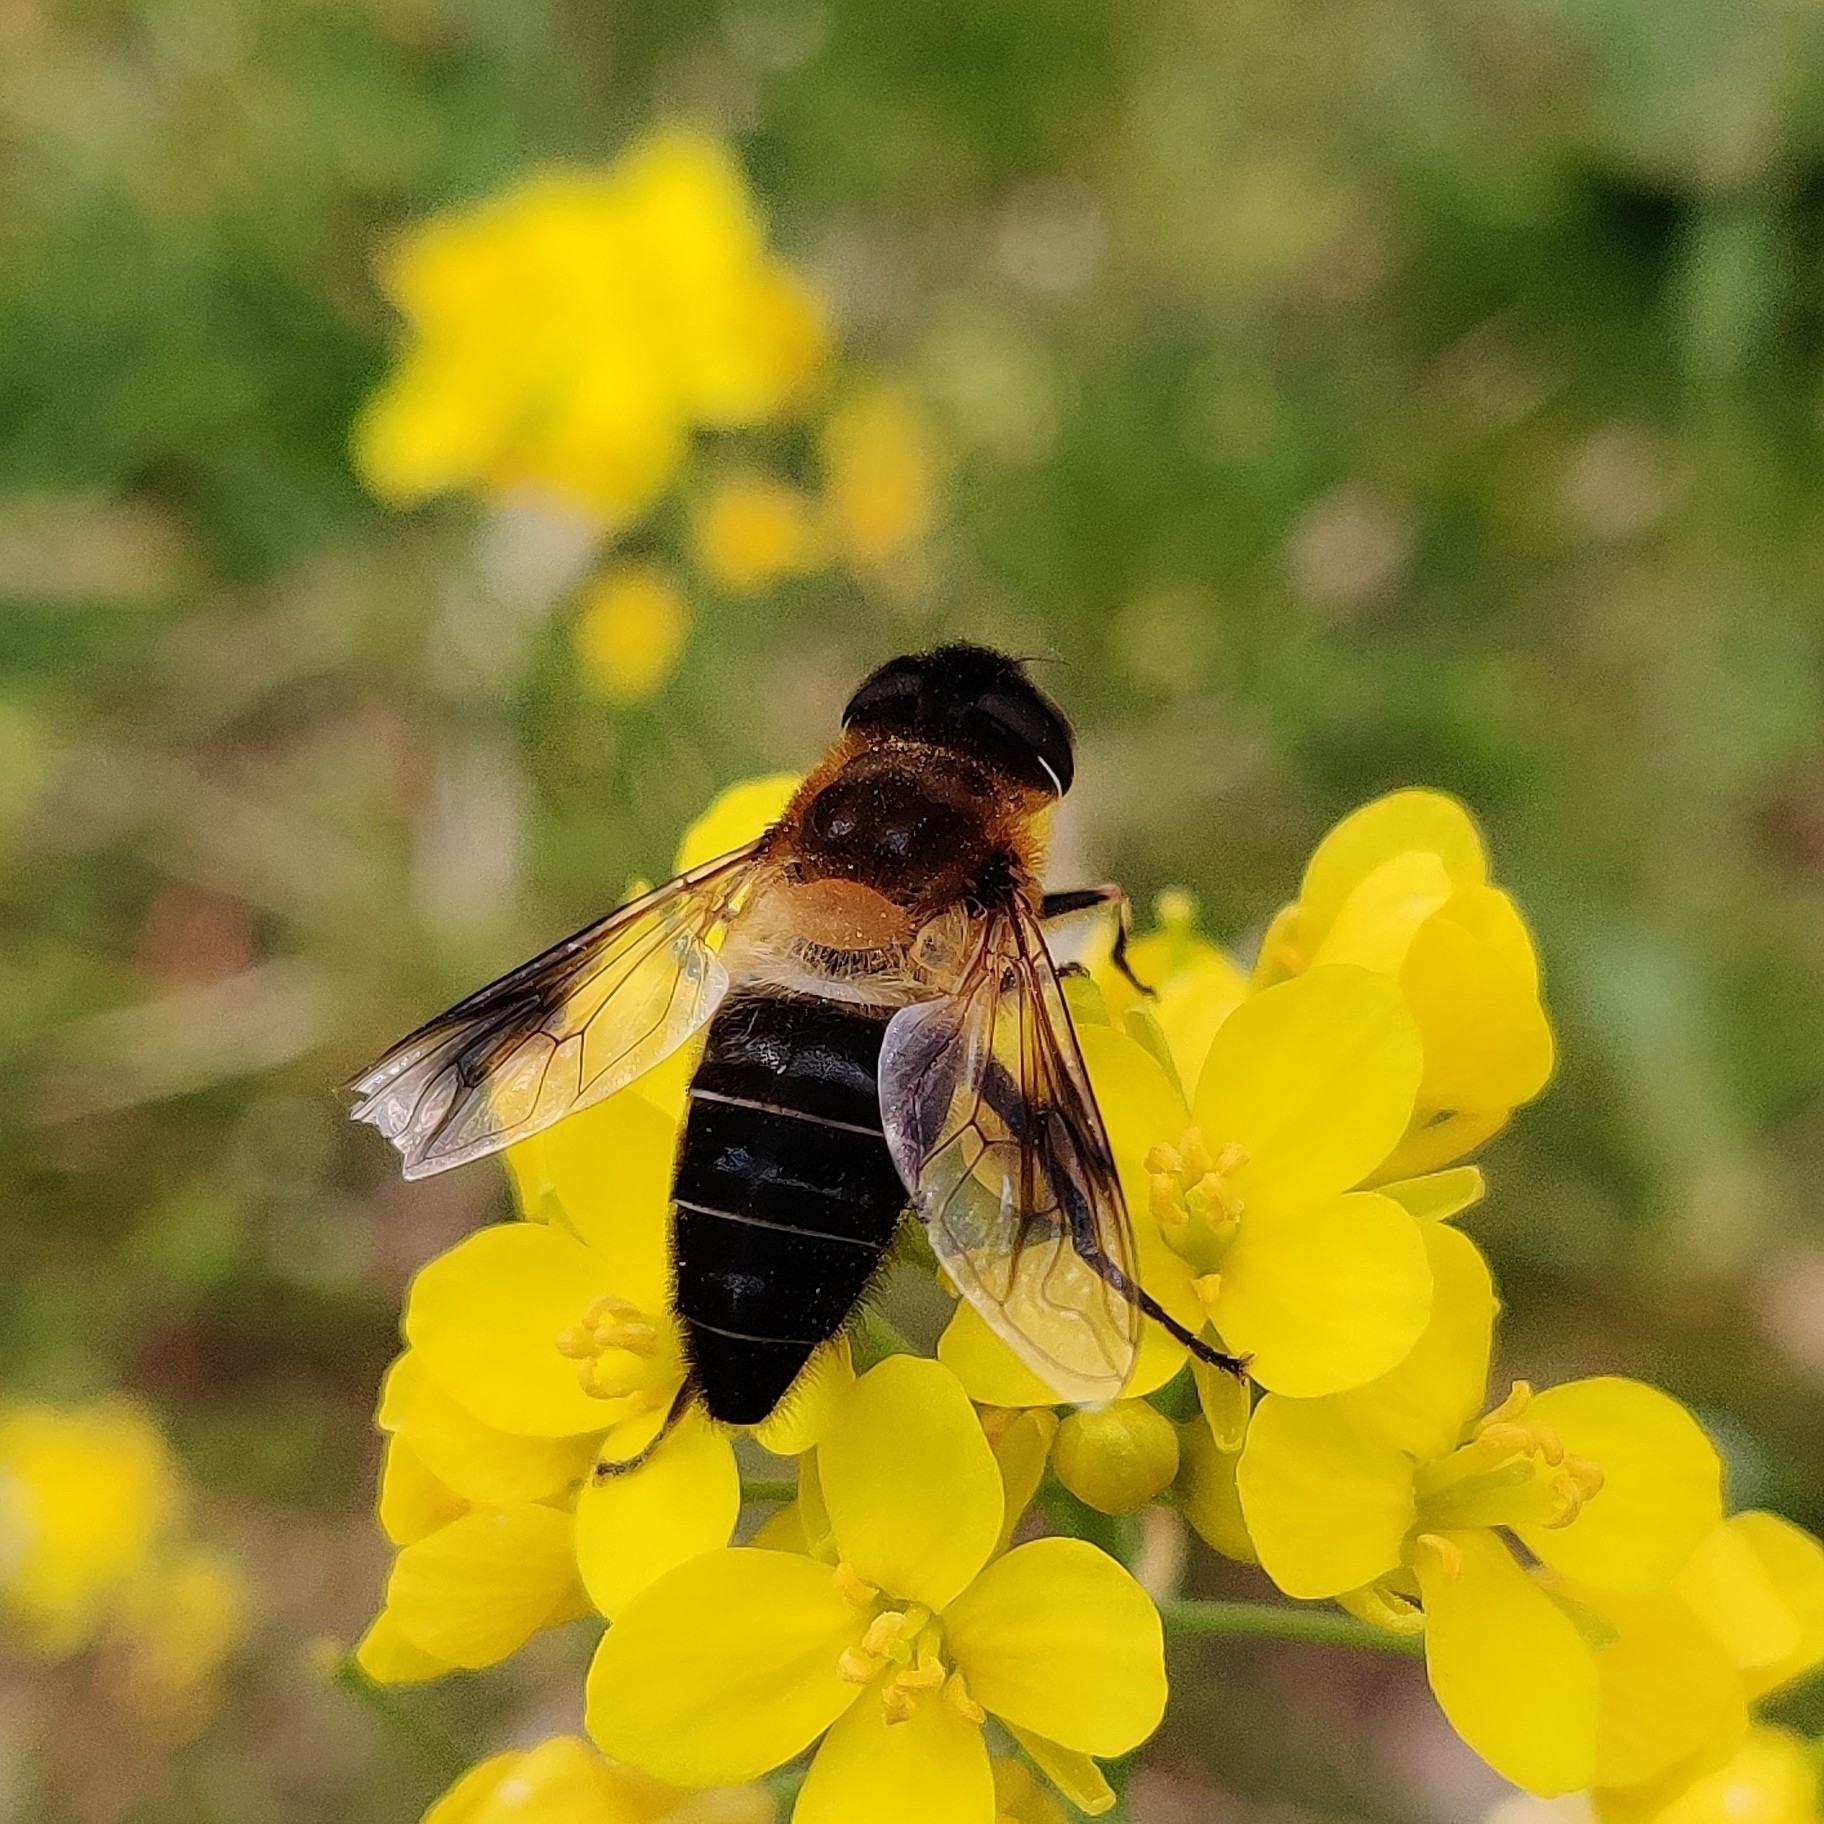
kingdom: Animalia
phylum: Arthropoda
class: Insecta
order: Diptera
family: Syrphidae
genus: Eristalis
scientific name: Eristalis himalayensis
